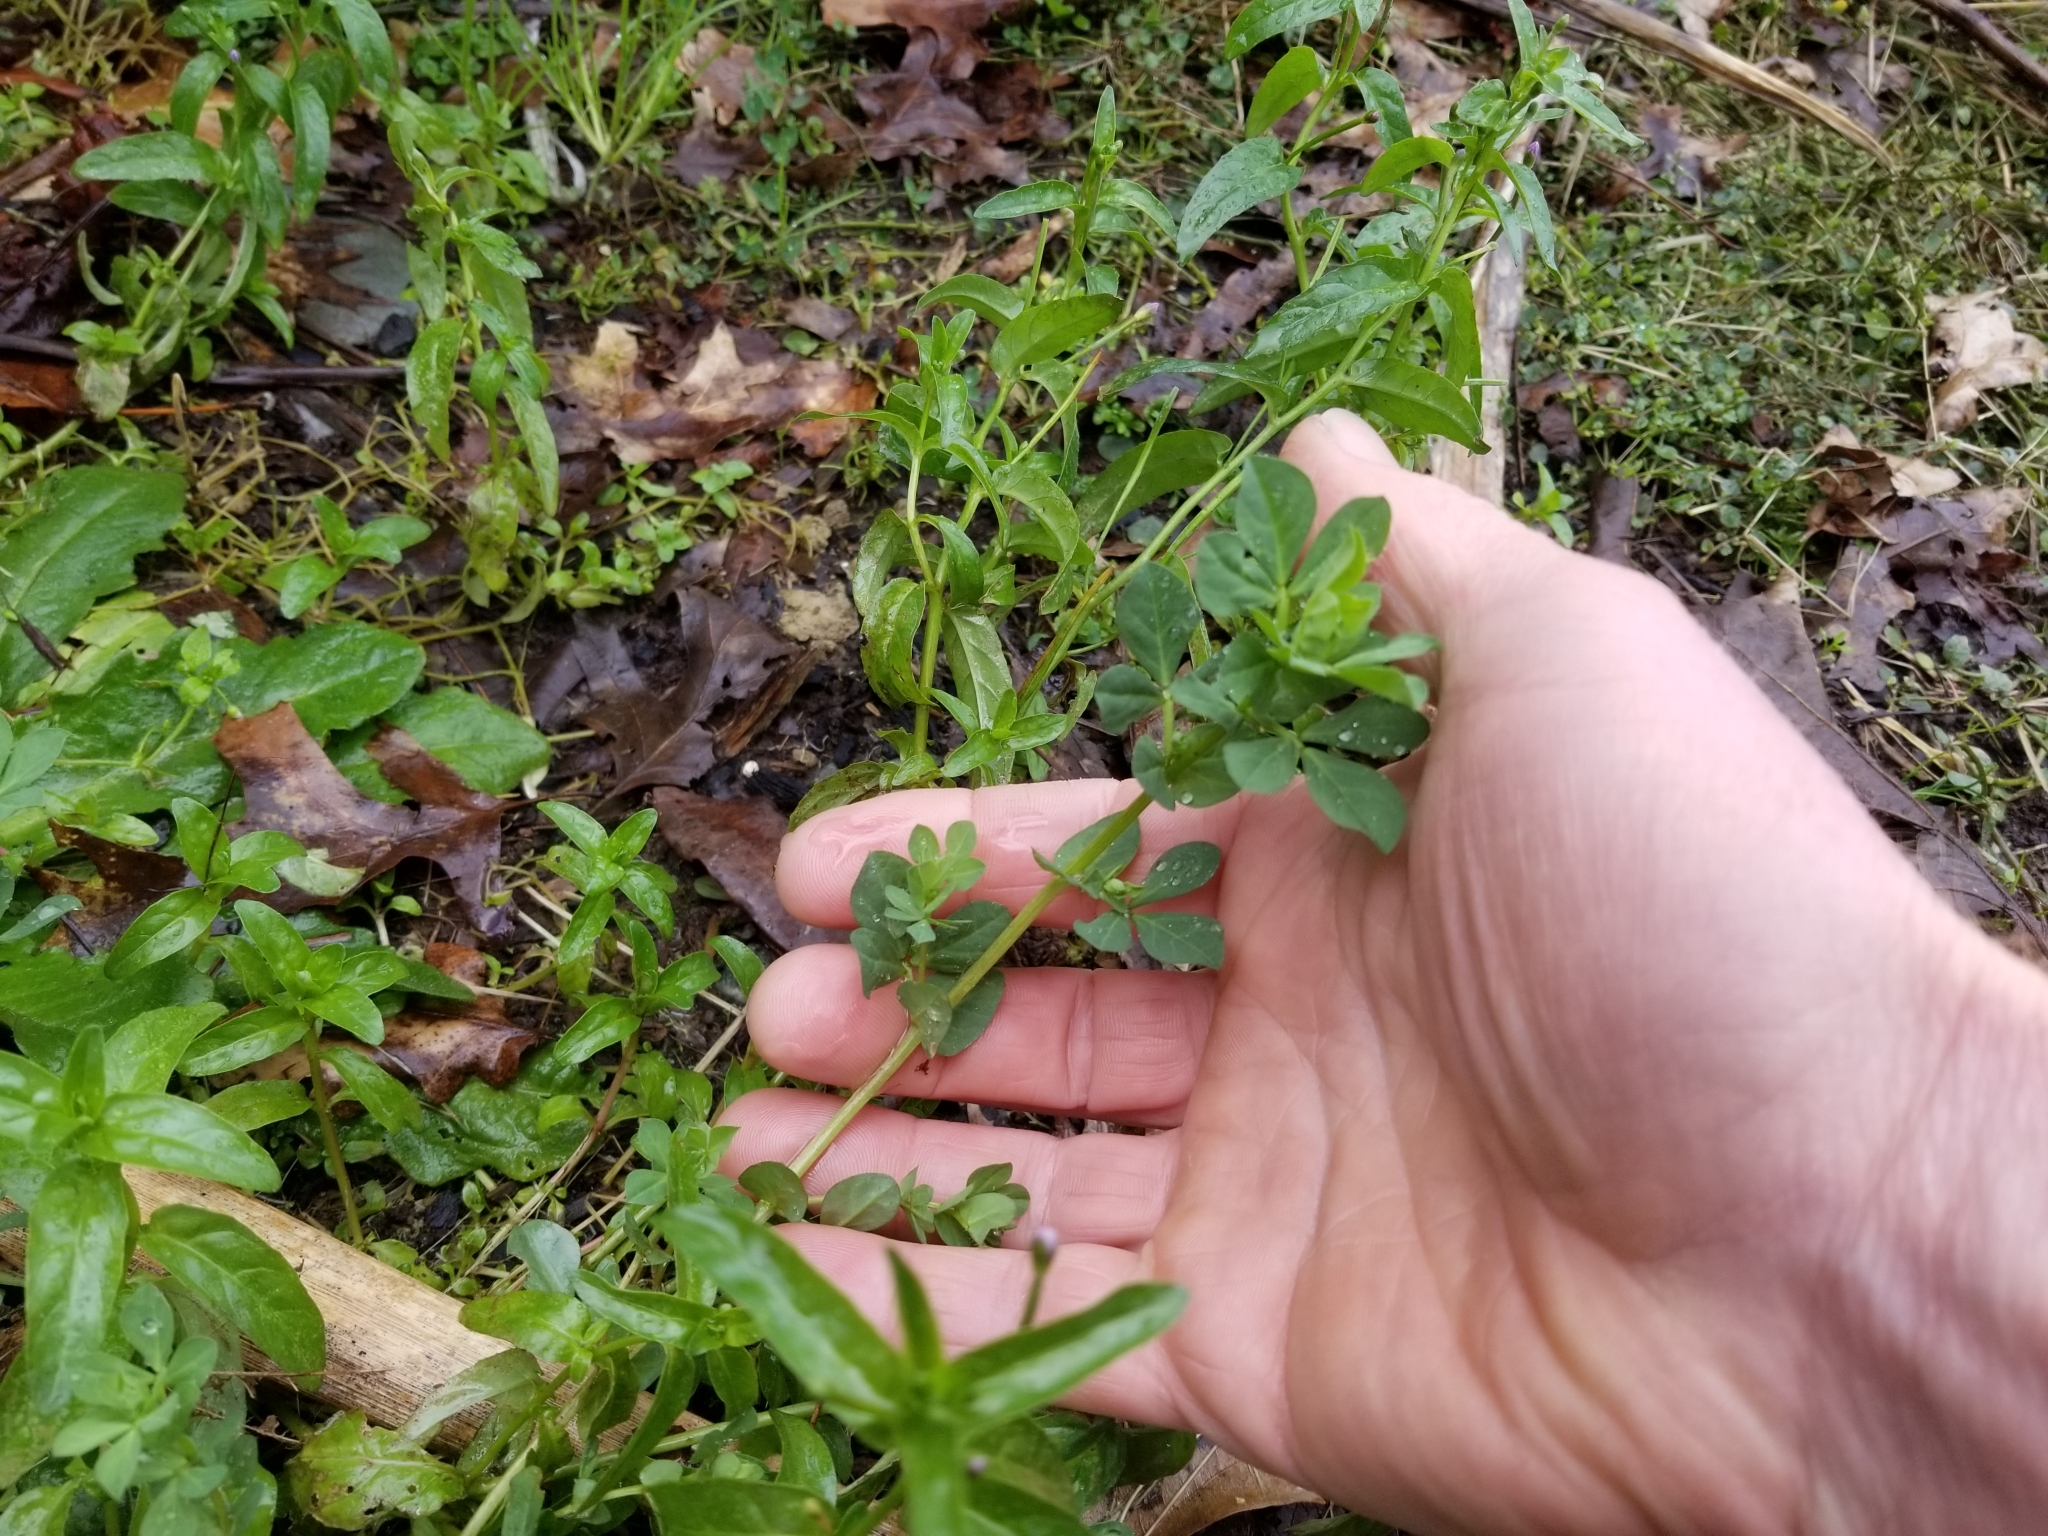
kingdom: Plantae
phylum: Tracheophyta
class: Magnoliopsida
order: Fabales
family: Fabaceae
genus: Lotus
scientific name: Lotus pedunculatus
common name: Greater birdsfoot-trefoil
